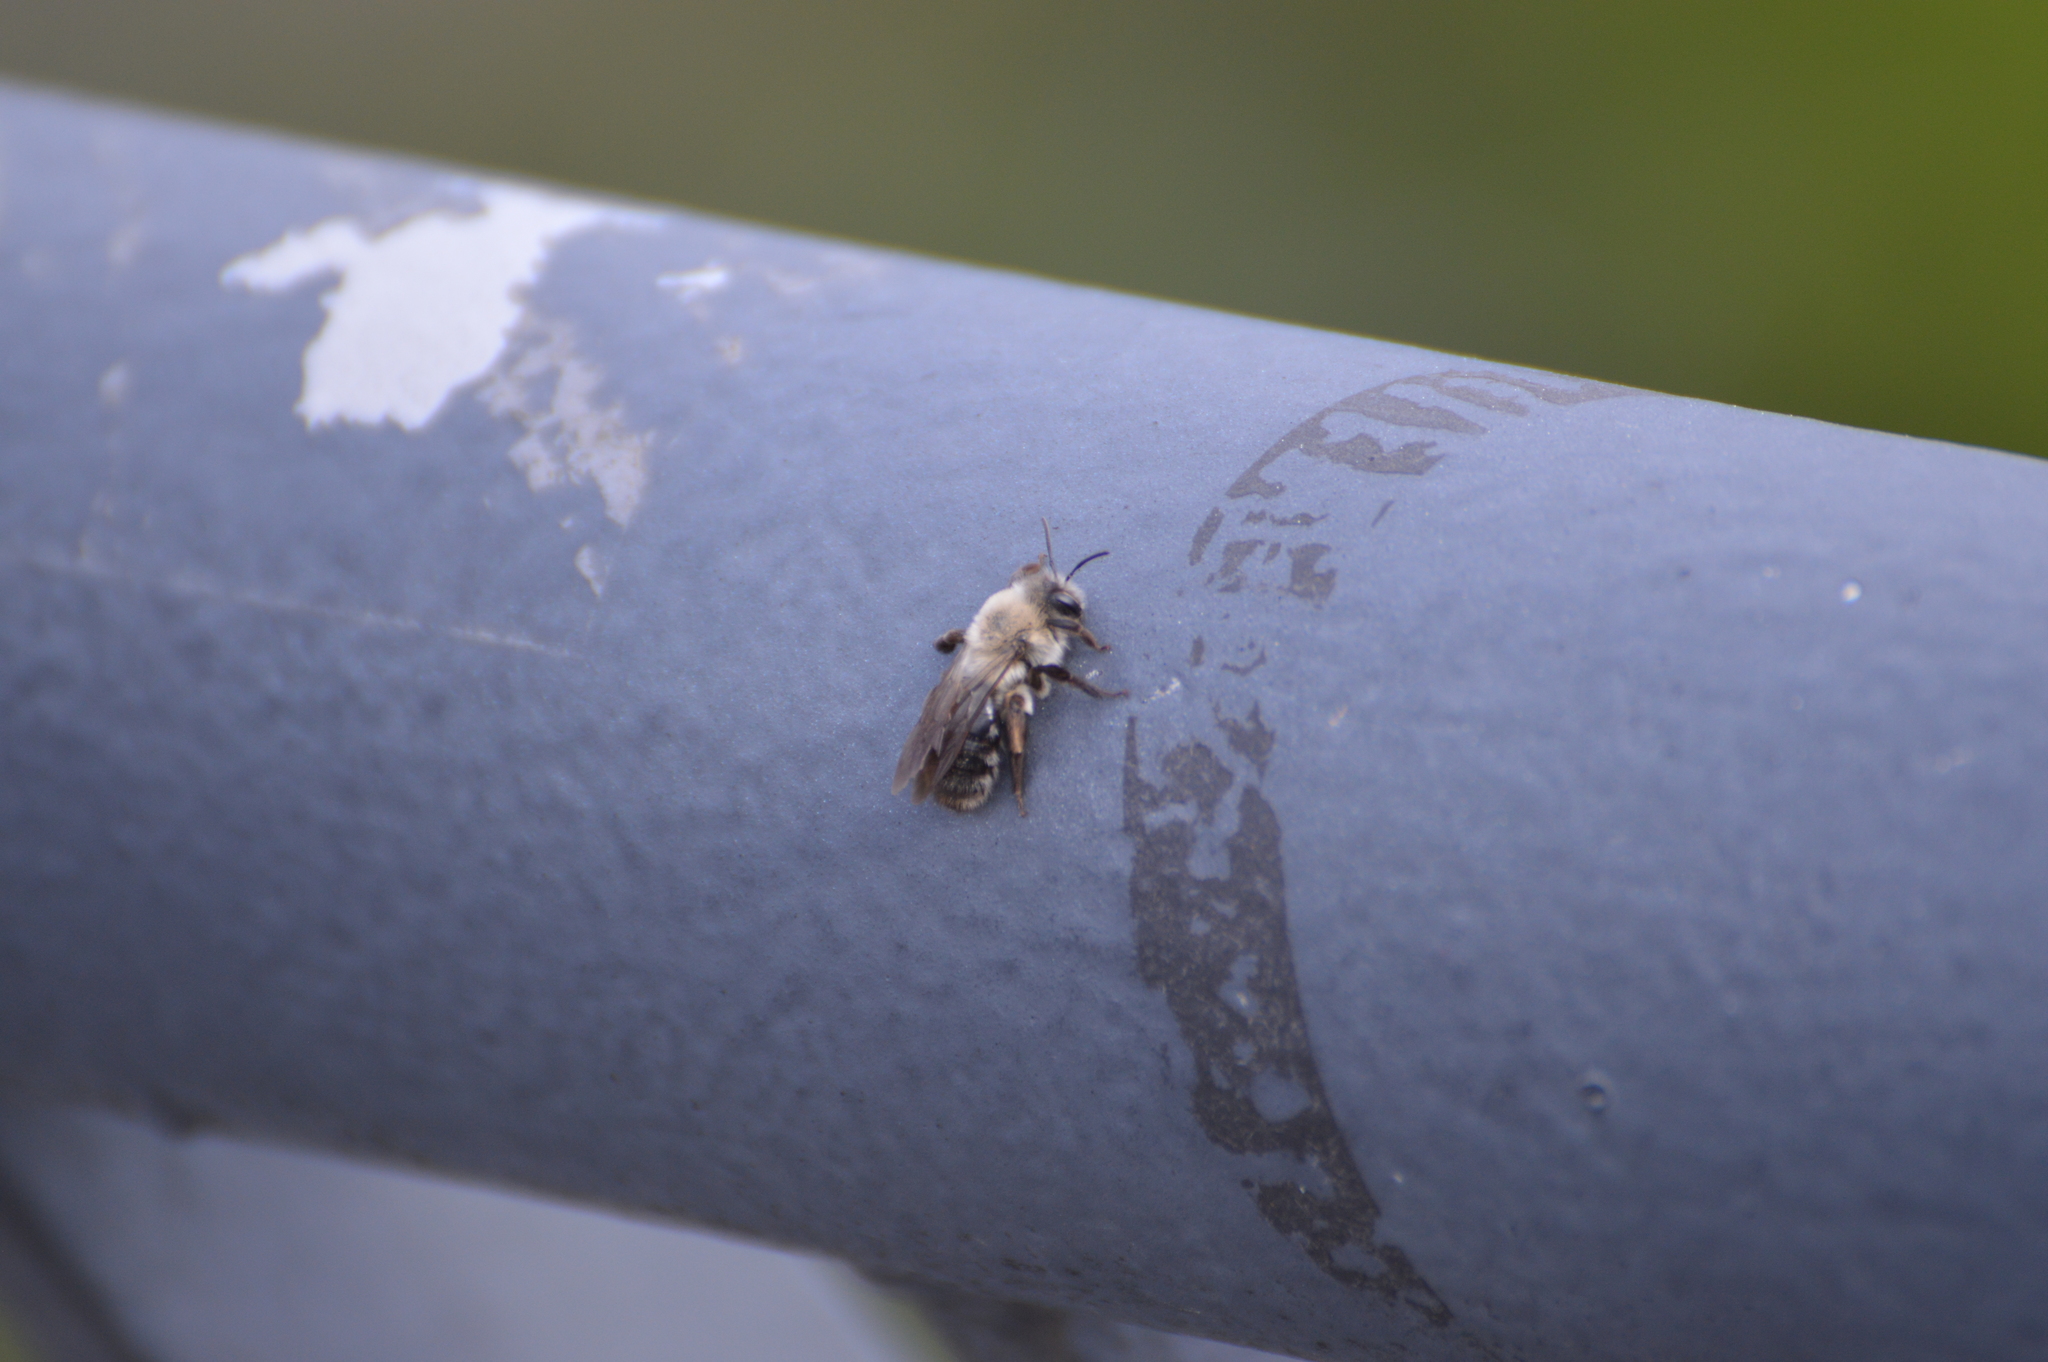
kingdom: Animalia
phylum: Arthropoda
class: Insecta
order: Hymenoptera
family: Andrenidae
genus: Andrena
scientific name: Andrena vaga
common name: Grey-backed mining bee
